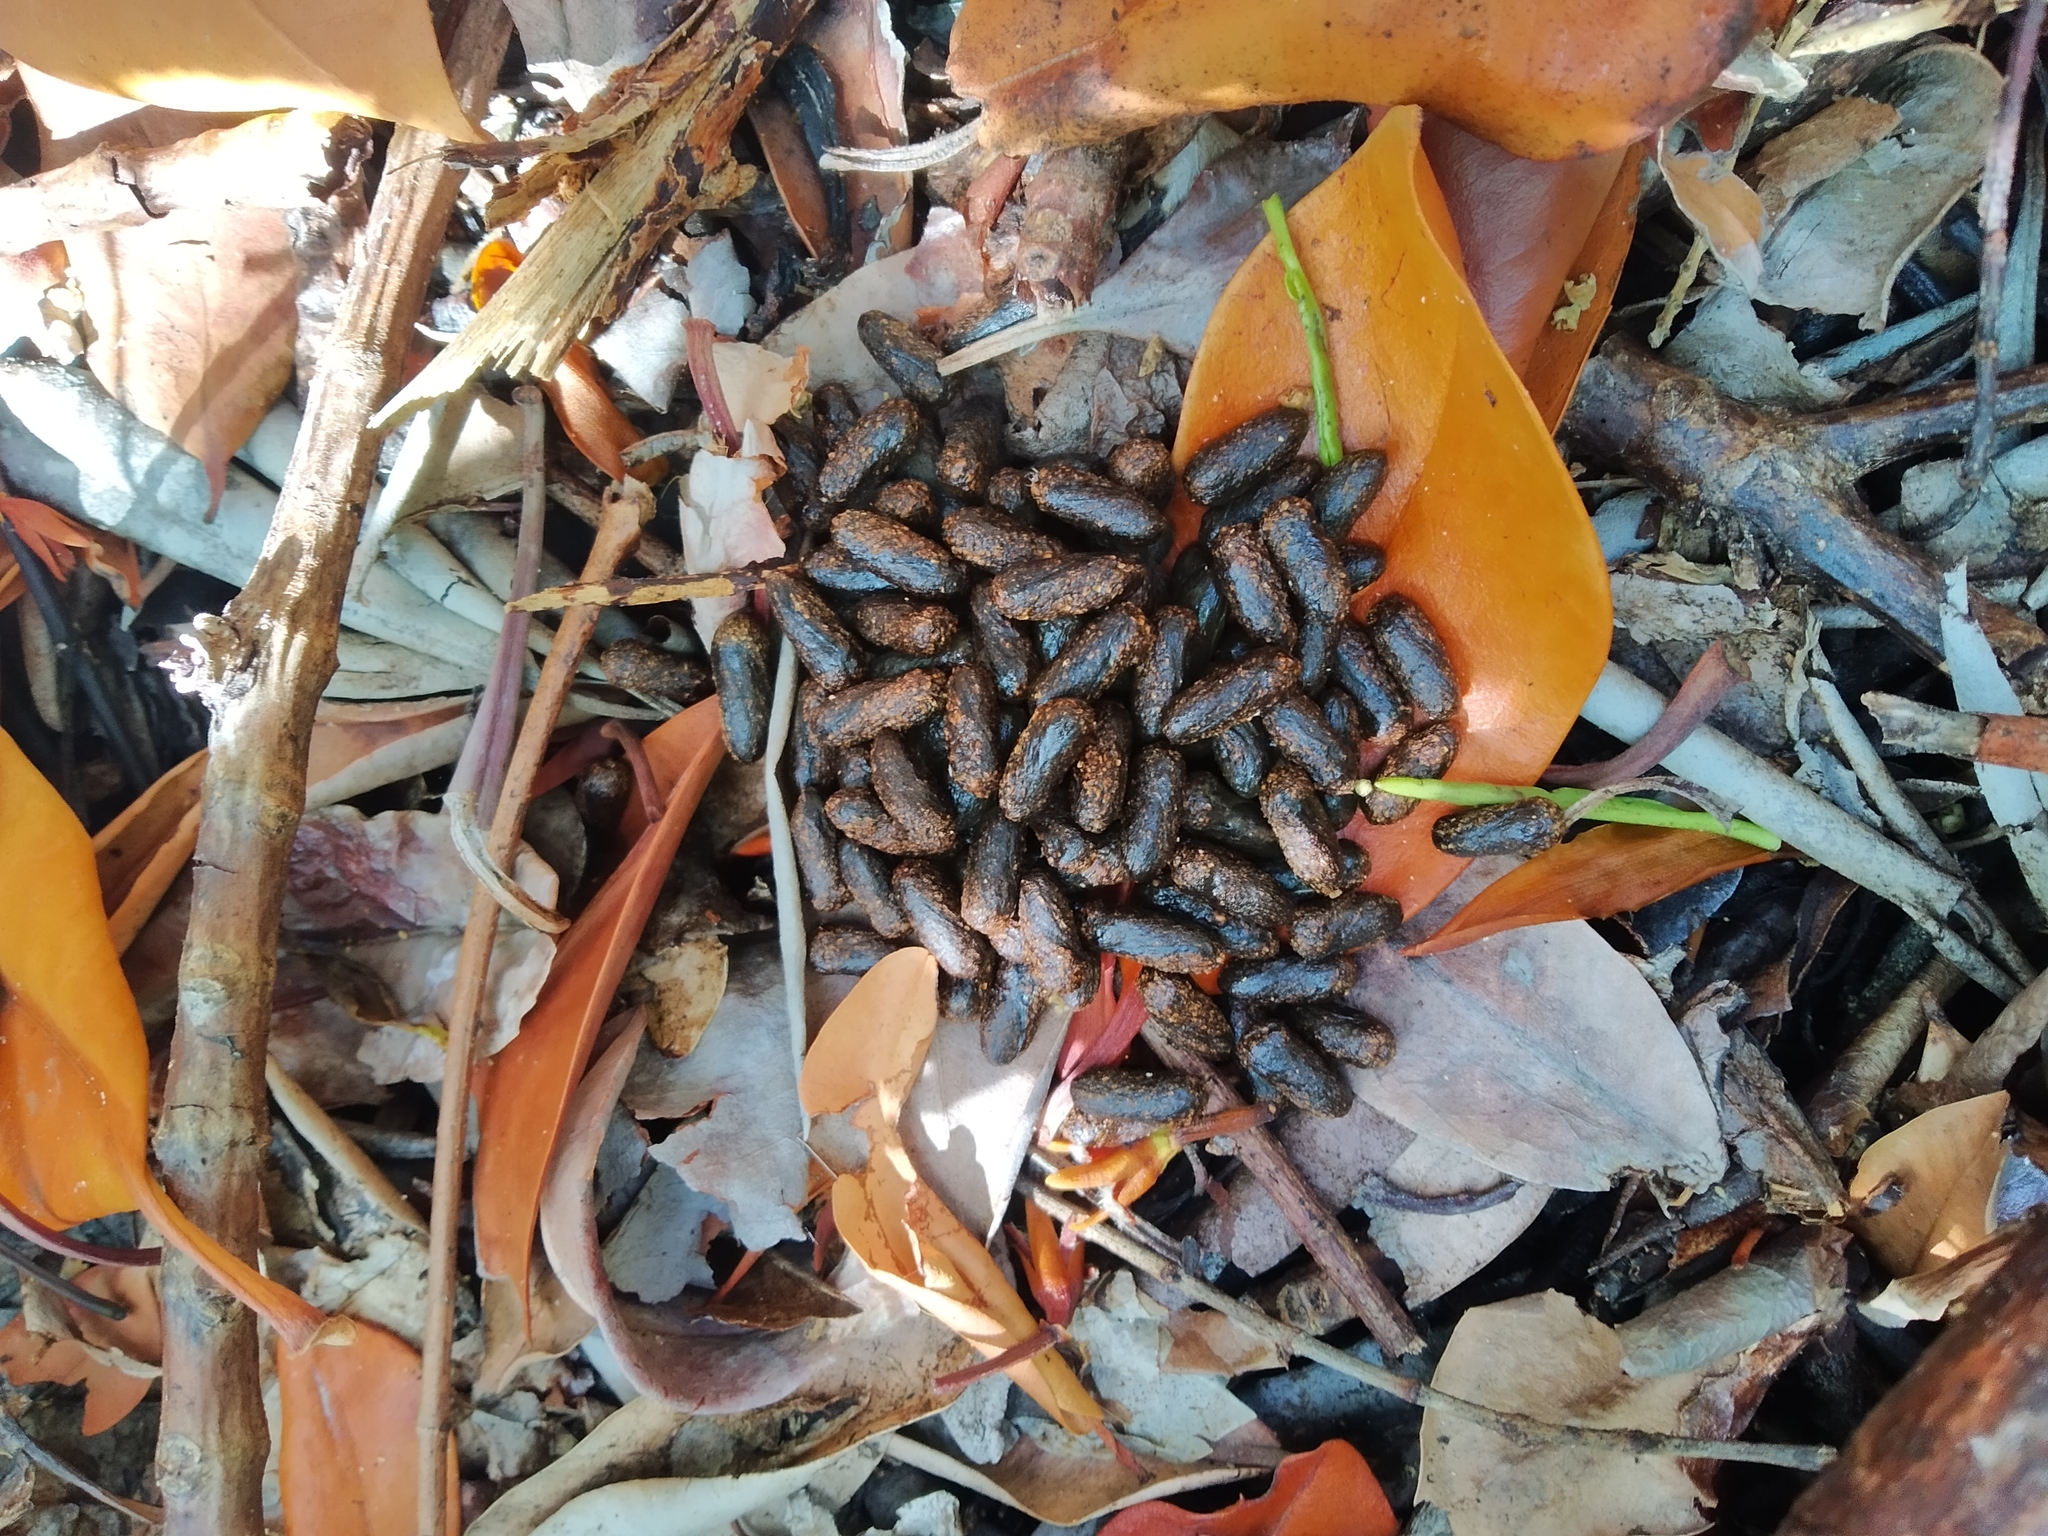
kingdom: Animalia
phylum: Chordata
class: Mammalia
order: Rodentia
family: Dasyproctidae
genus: Dasyprocta
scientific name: Dasyprocta punctata
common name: Central american agouti
